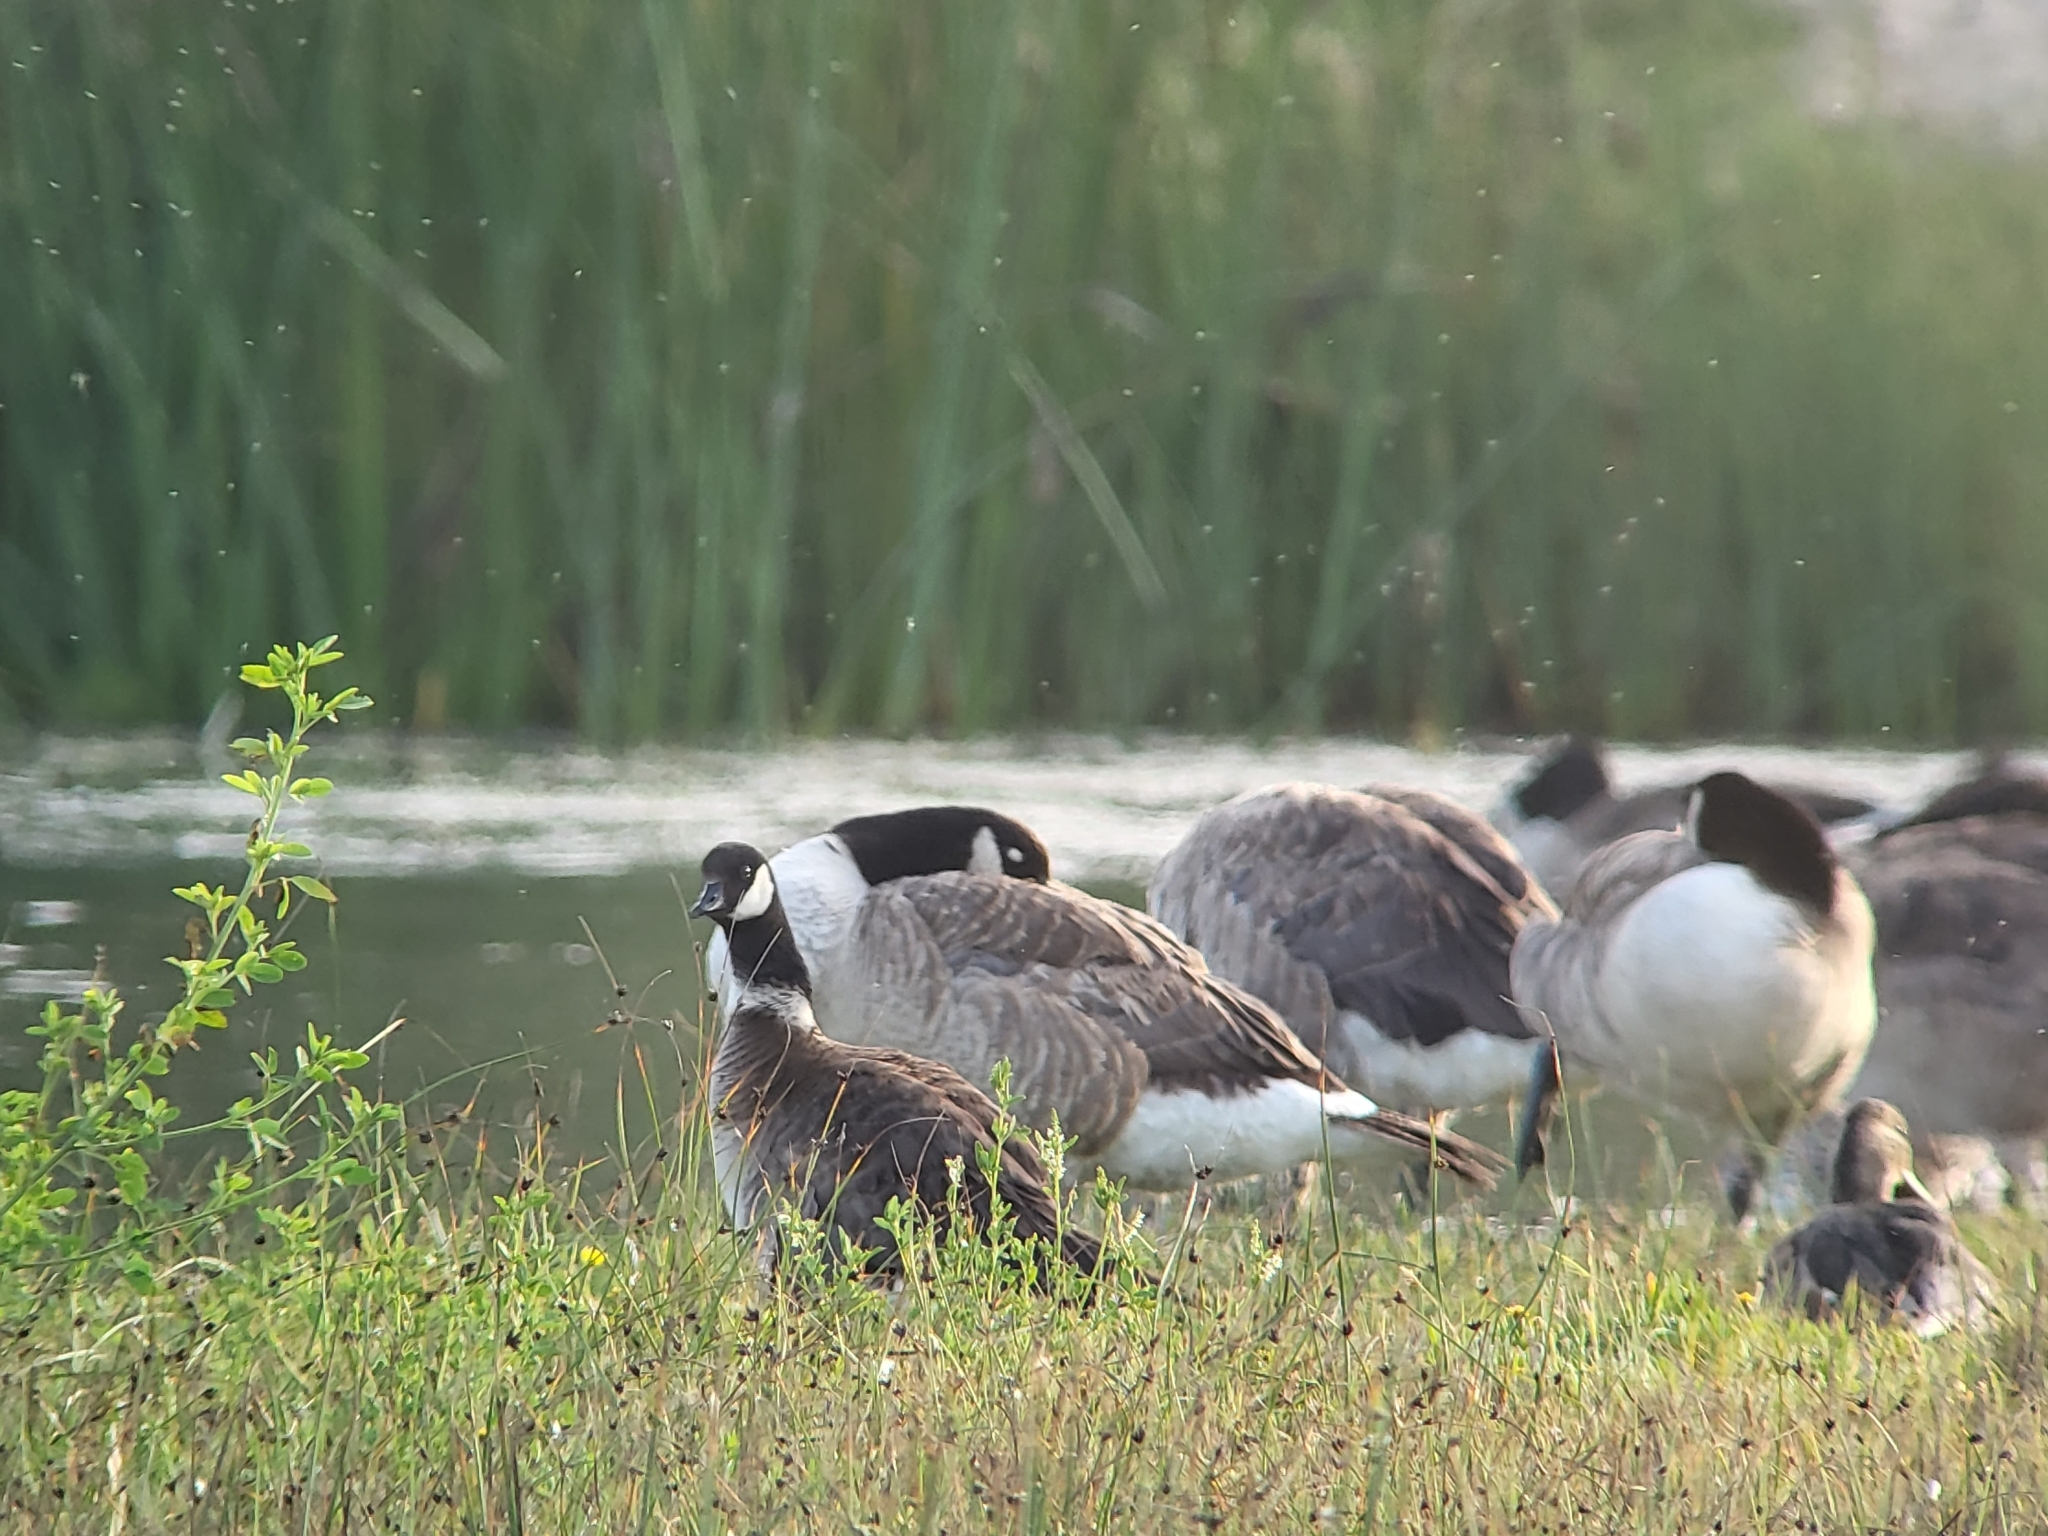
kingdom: Animalia
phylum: Chordata
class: Aves
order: Anseriformes
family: Anatidae
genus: Branta
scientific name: Branta hutchinsii
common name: Cackling goose
